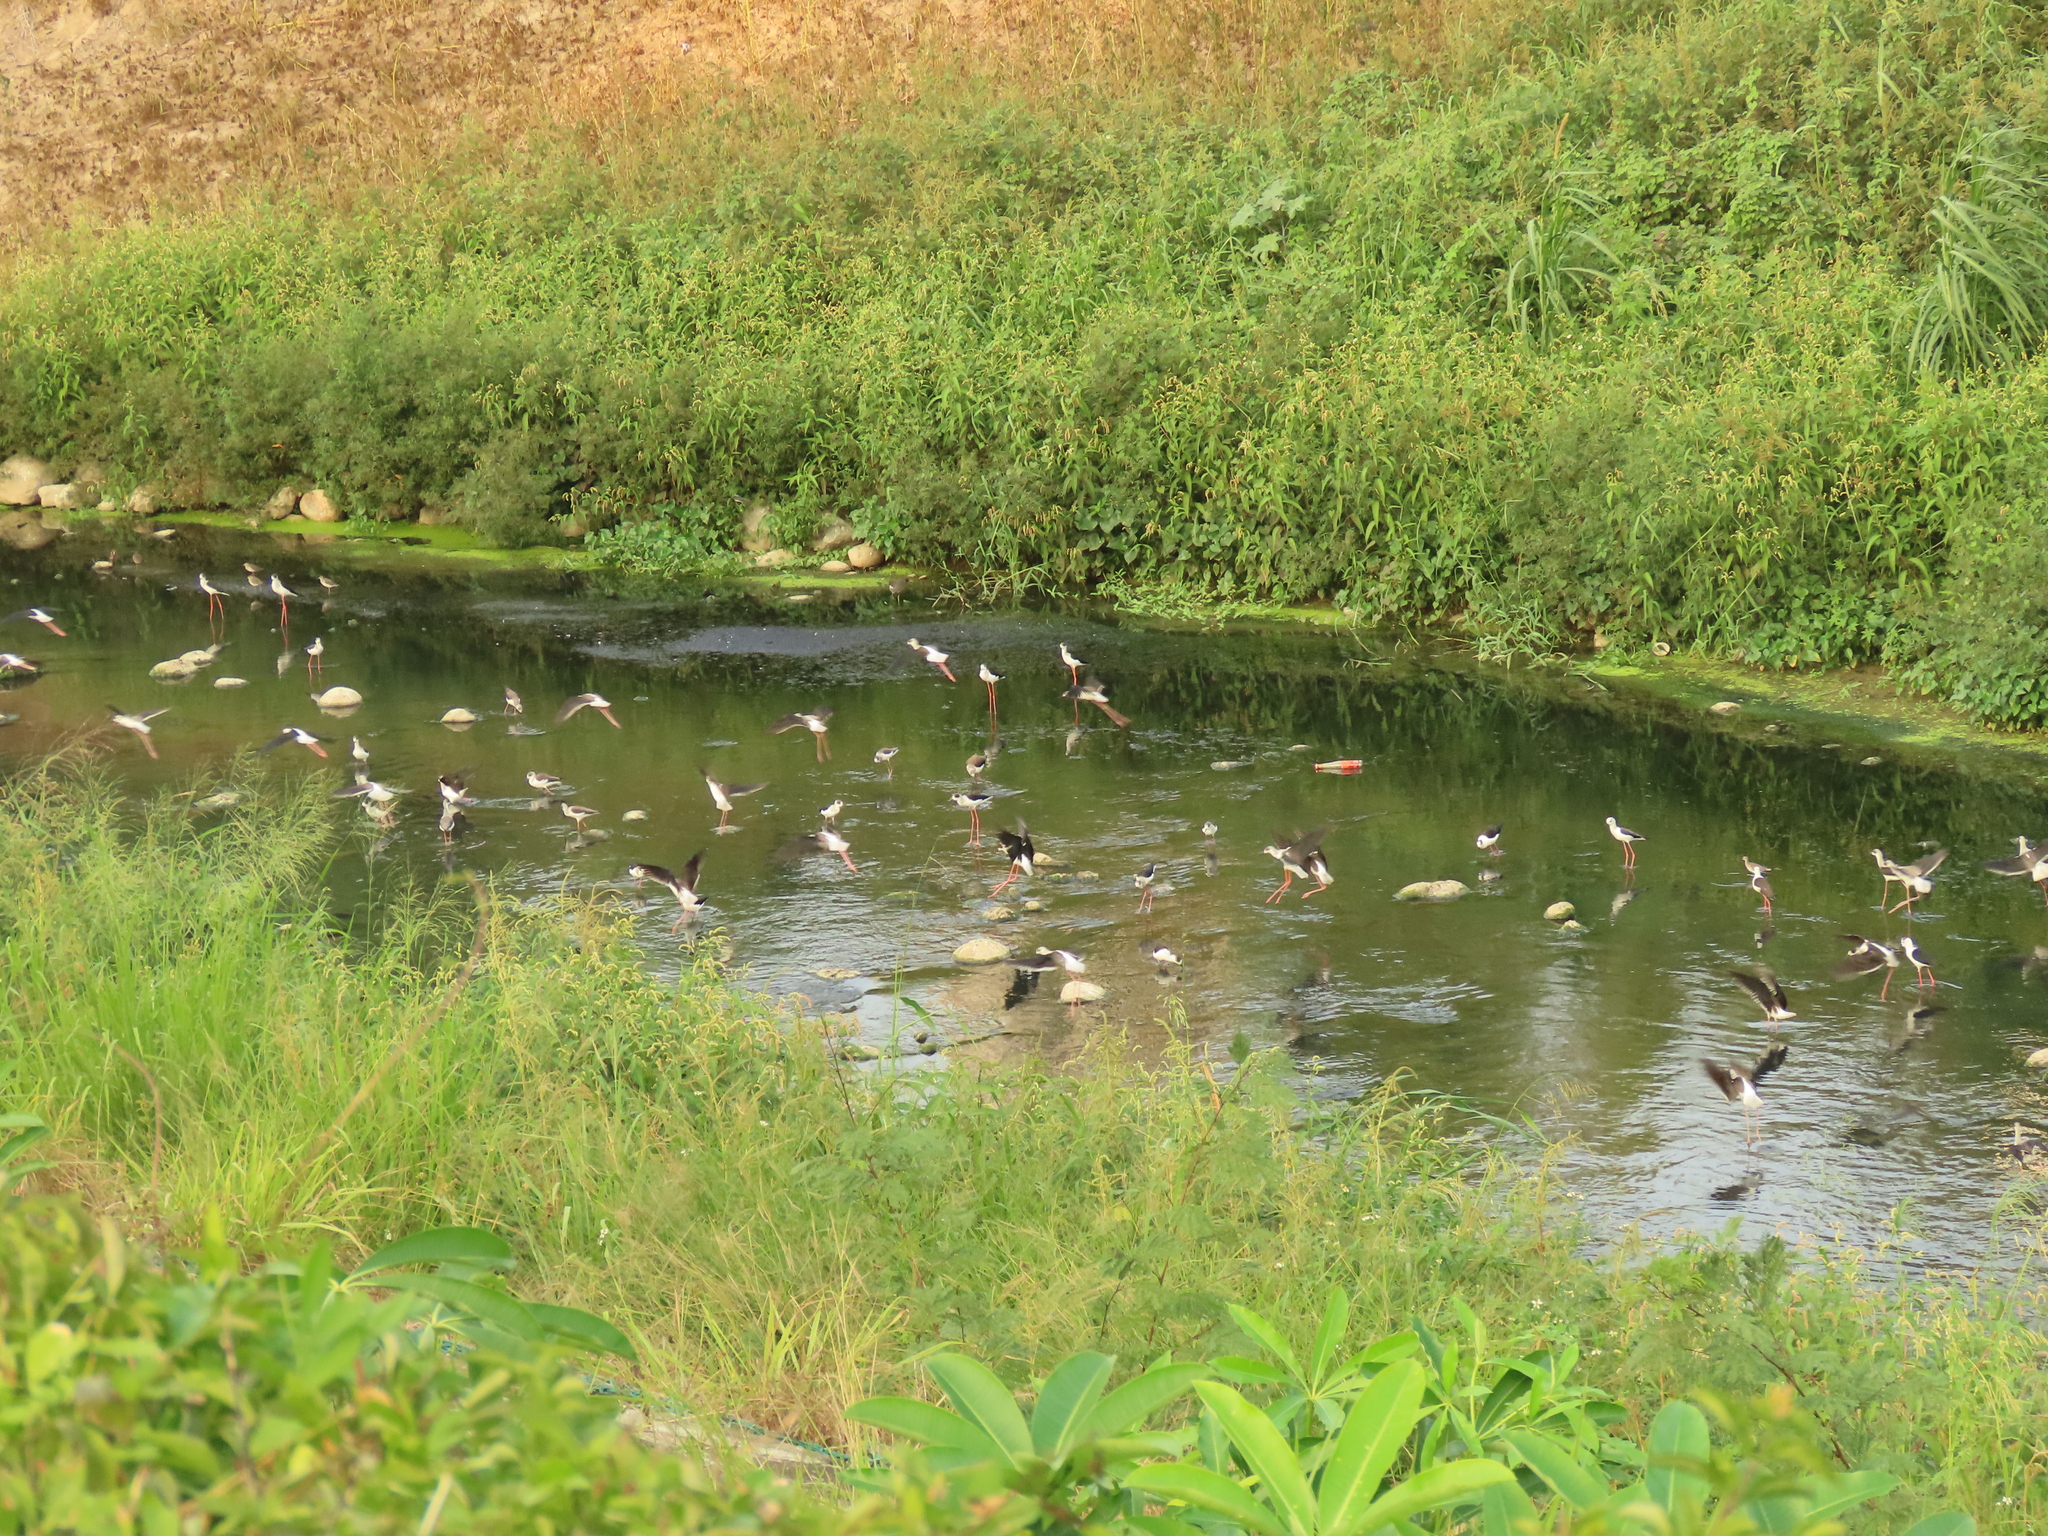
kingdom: Animalia
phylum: Chordata
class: Aves
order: Charadriiformes
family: Recurvirostridae
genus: Himantopus
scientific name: Himantopus himantopus
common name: Black-winged stilt
